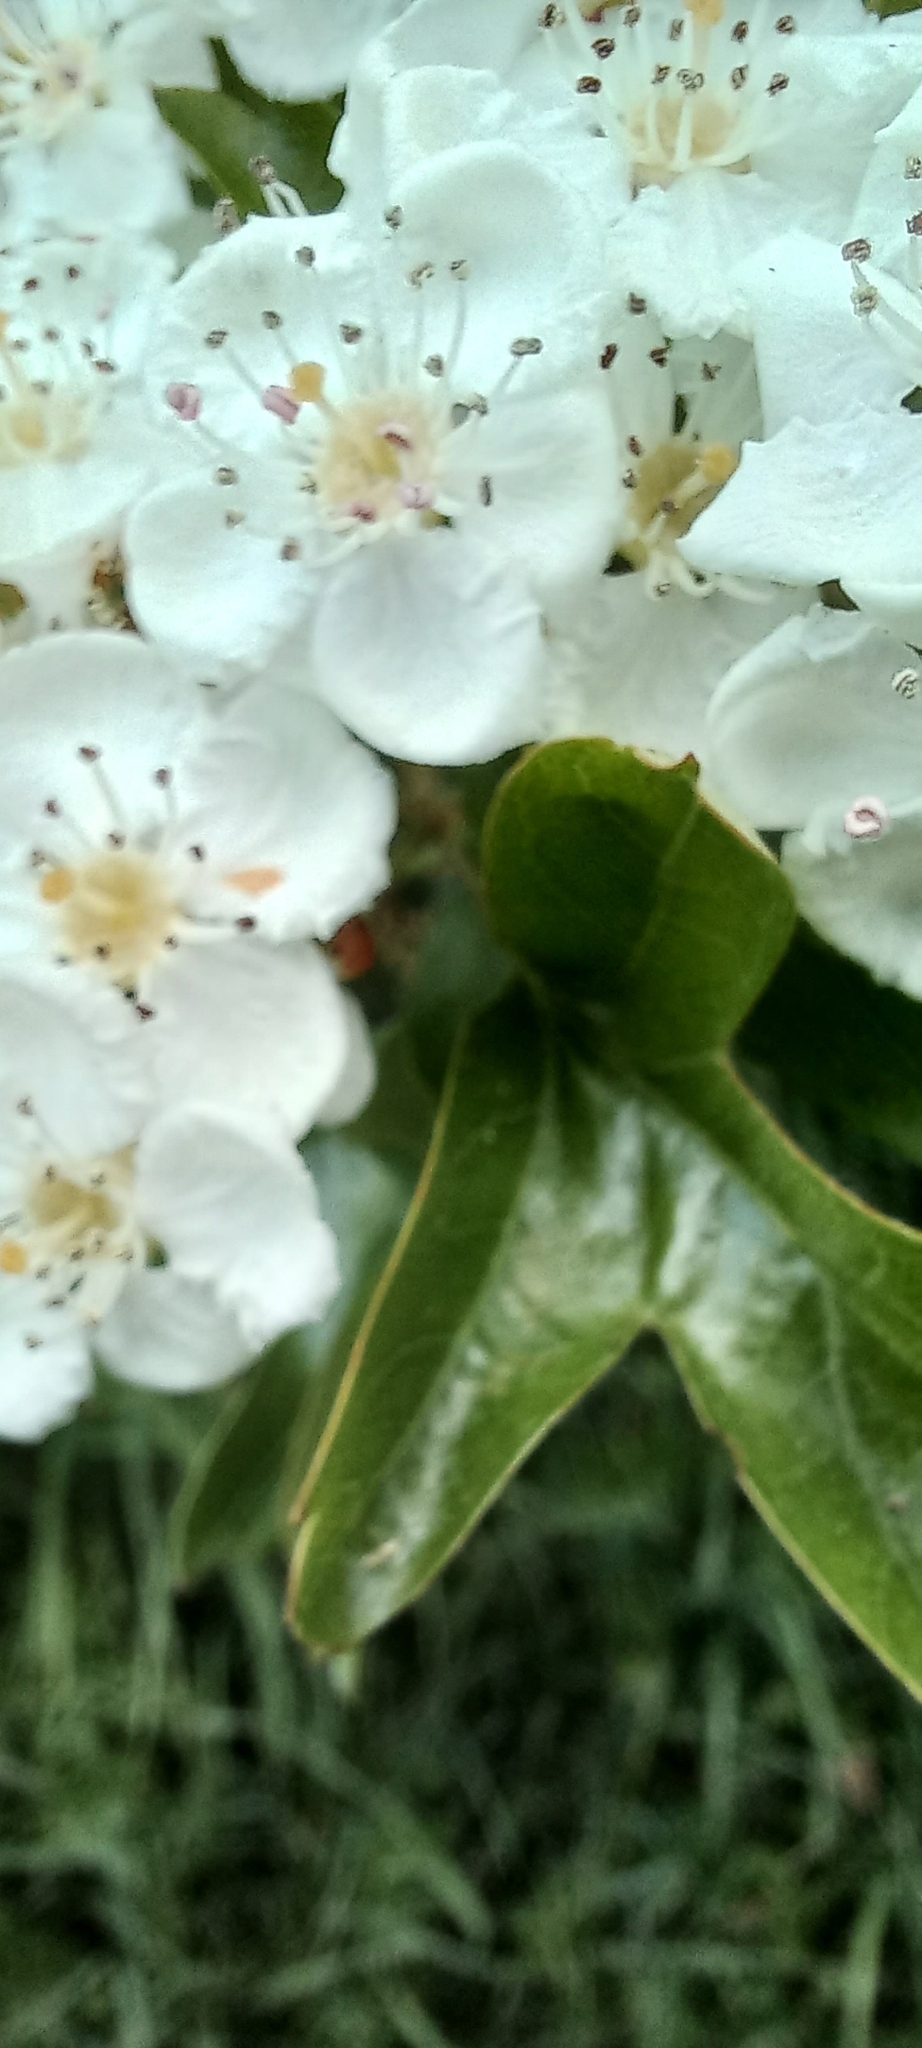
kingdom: Plantae
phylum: Tracheophyta
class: Magnoliopsida
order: Rosales
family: Rosaceae
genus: Crataegus
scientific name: Crataegus monogyna
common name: Hawthorn
